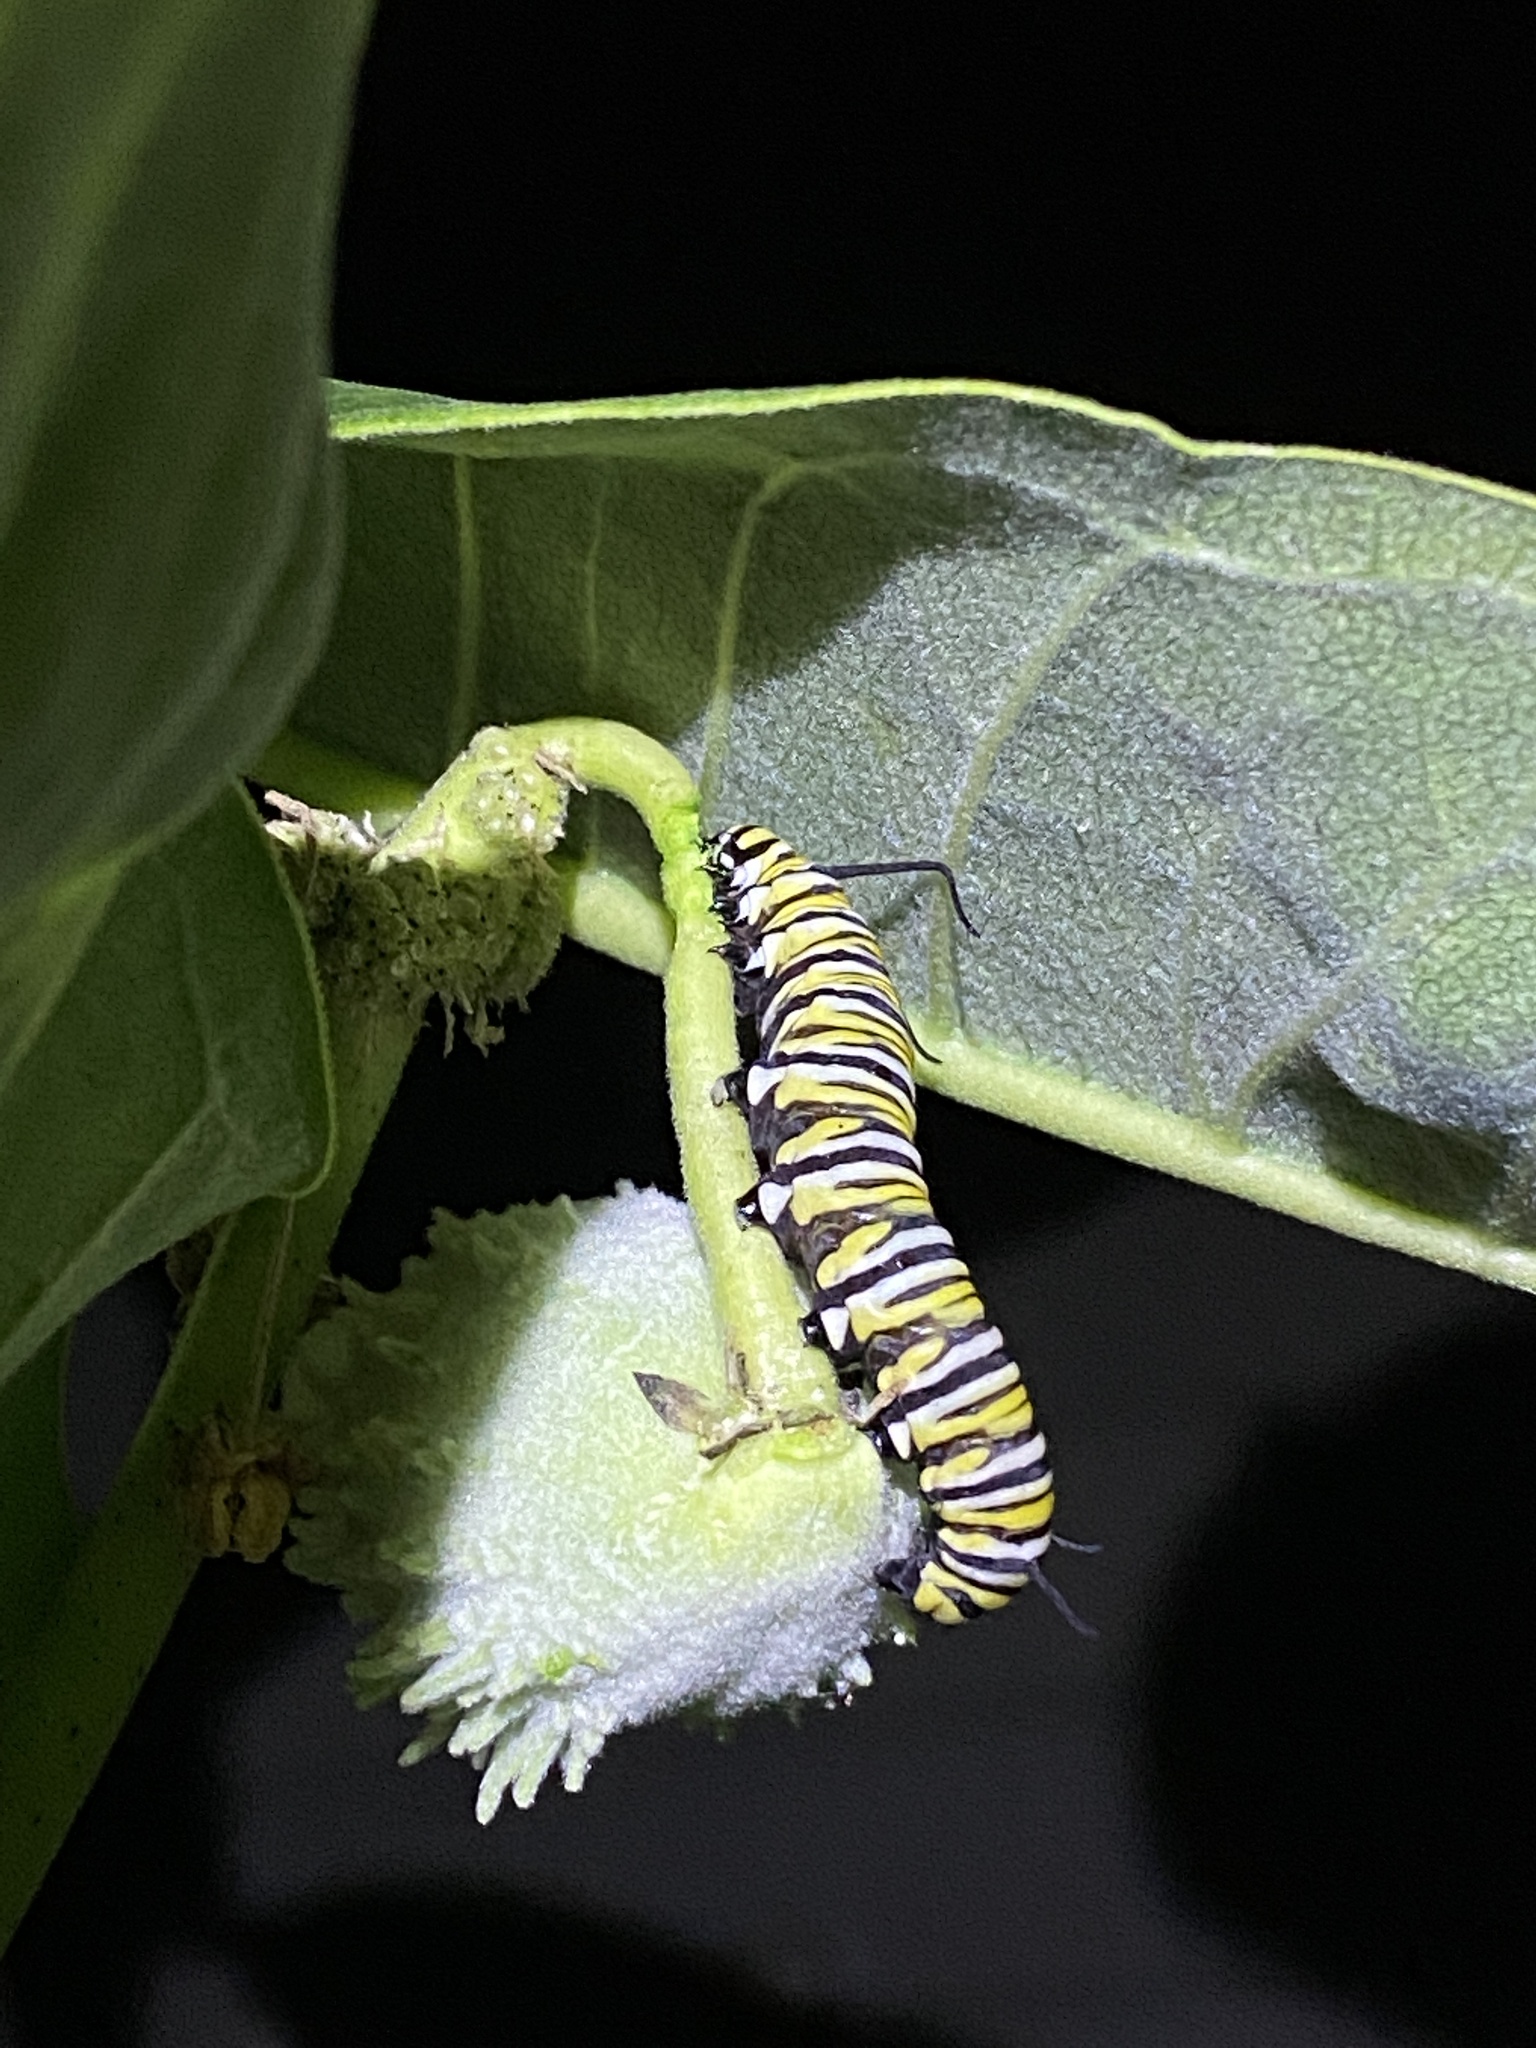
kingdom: Animalia
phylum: Arthropoda
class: Insecta
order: Lepidoptera
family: Nymphalidae
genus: Danaus
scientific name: Danaus plexippus
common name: Monarch
